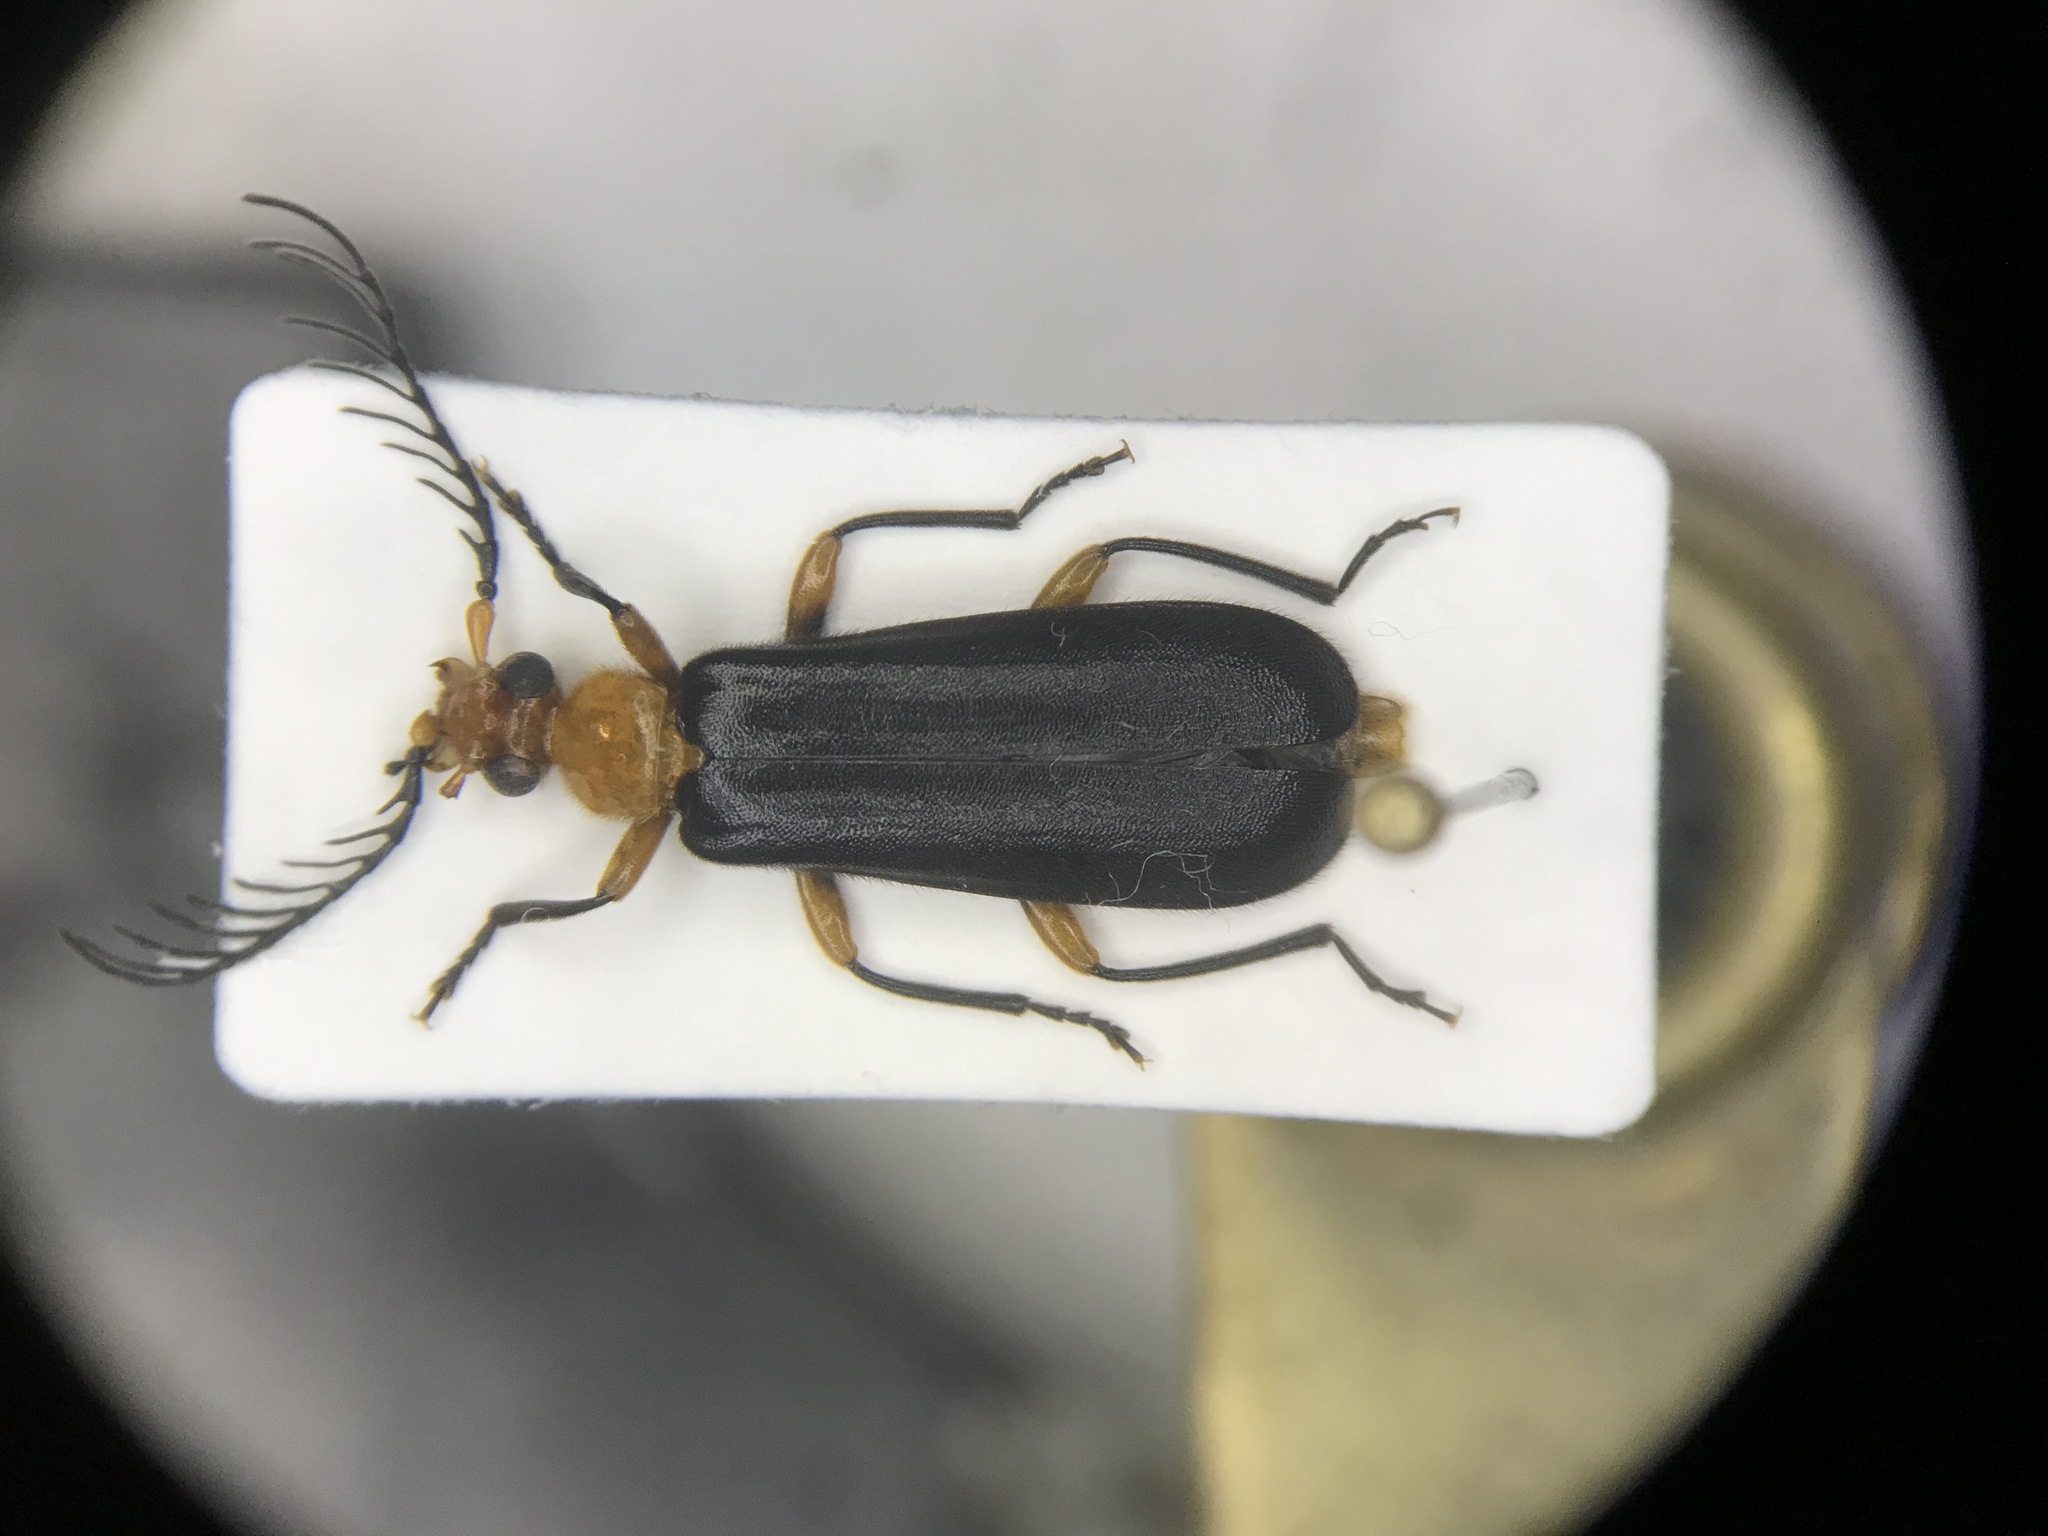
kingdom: Animalia
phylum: Arthropoda
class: Insecta
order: Coleoptera
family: Pyrochroidae
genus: Neopyrochroa
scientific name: Neopyrochroa femoralis
